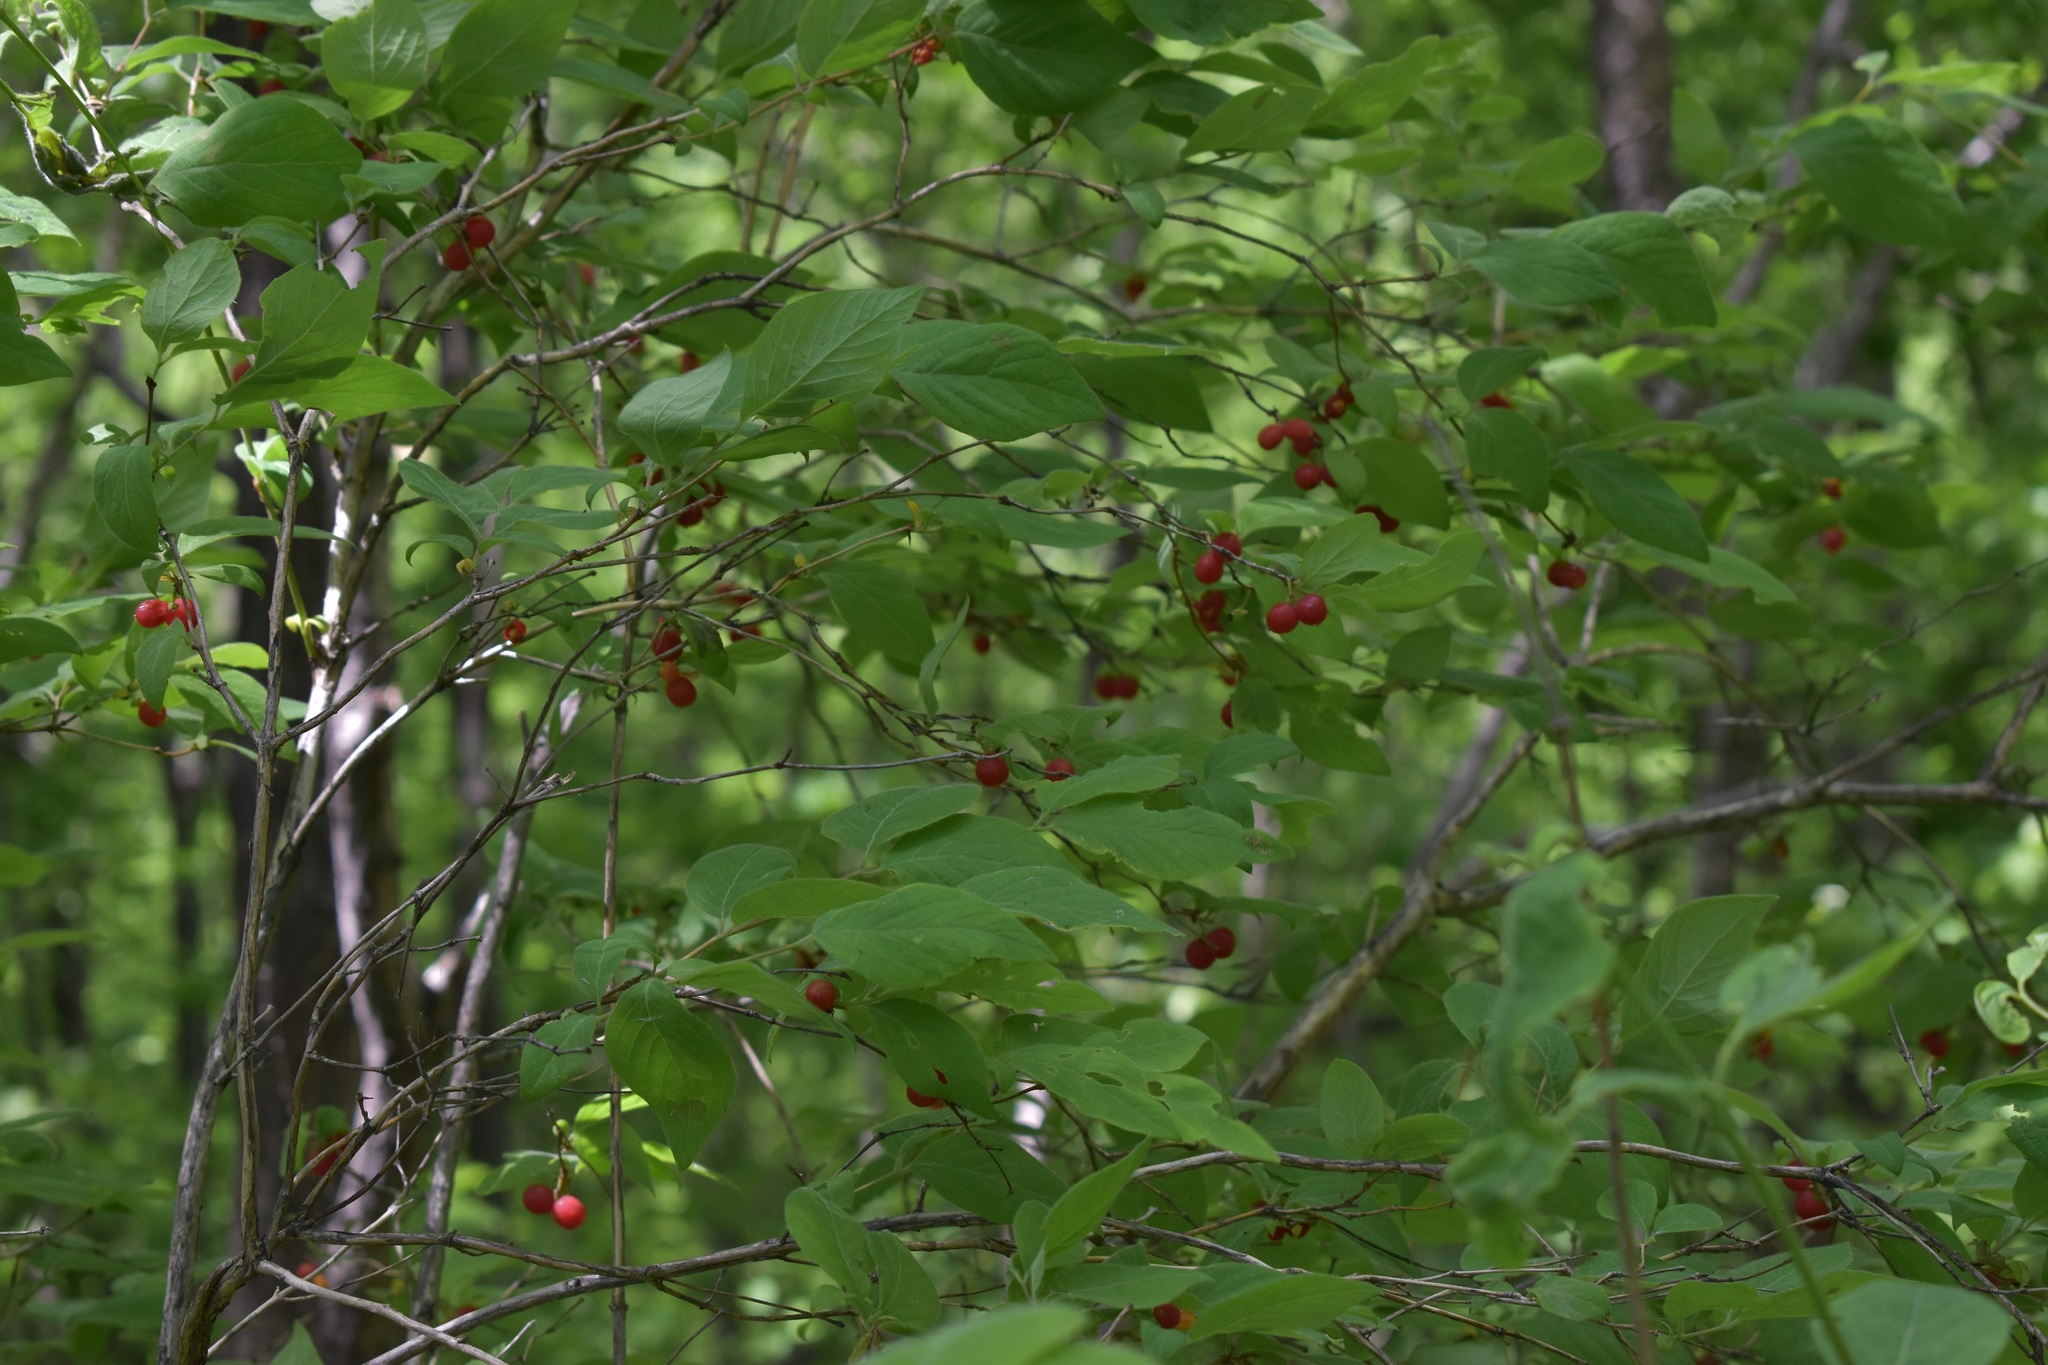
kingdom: Plantae
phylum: Tracheophyta
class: Magnoliopsida
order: Dipsacales
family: Caprifoliaceae
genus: Lonicera
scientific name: Lonicera praeflorens
